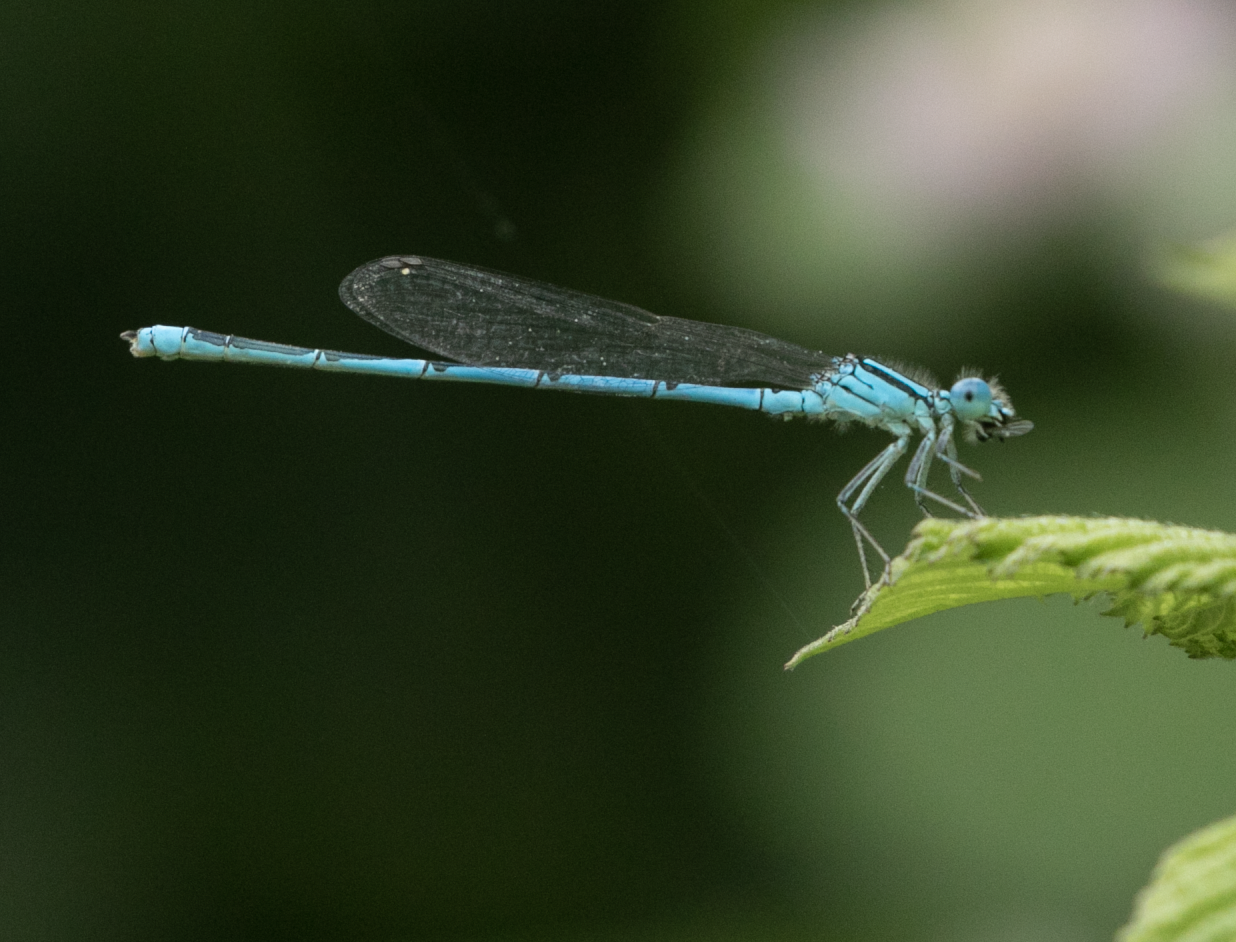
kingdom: Animalia
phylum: Arthropoda
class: Insecta
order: Odonata
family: Coenagrionidae
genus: Erythromma
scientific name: Erythromma lindenii
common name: Blue-eye
